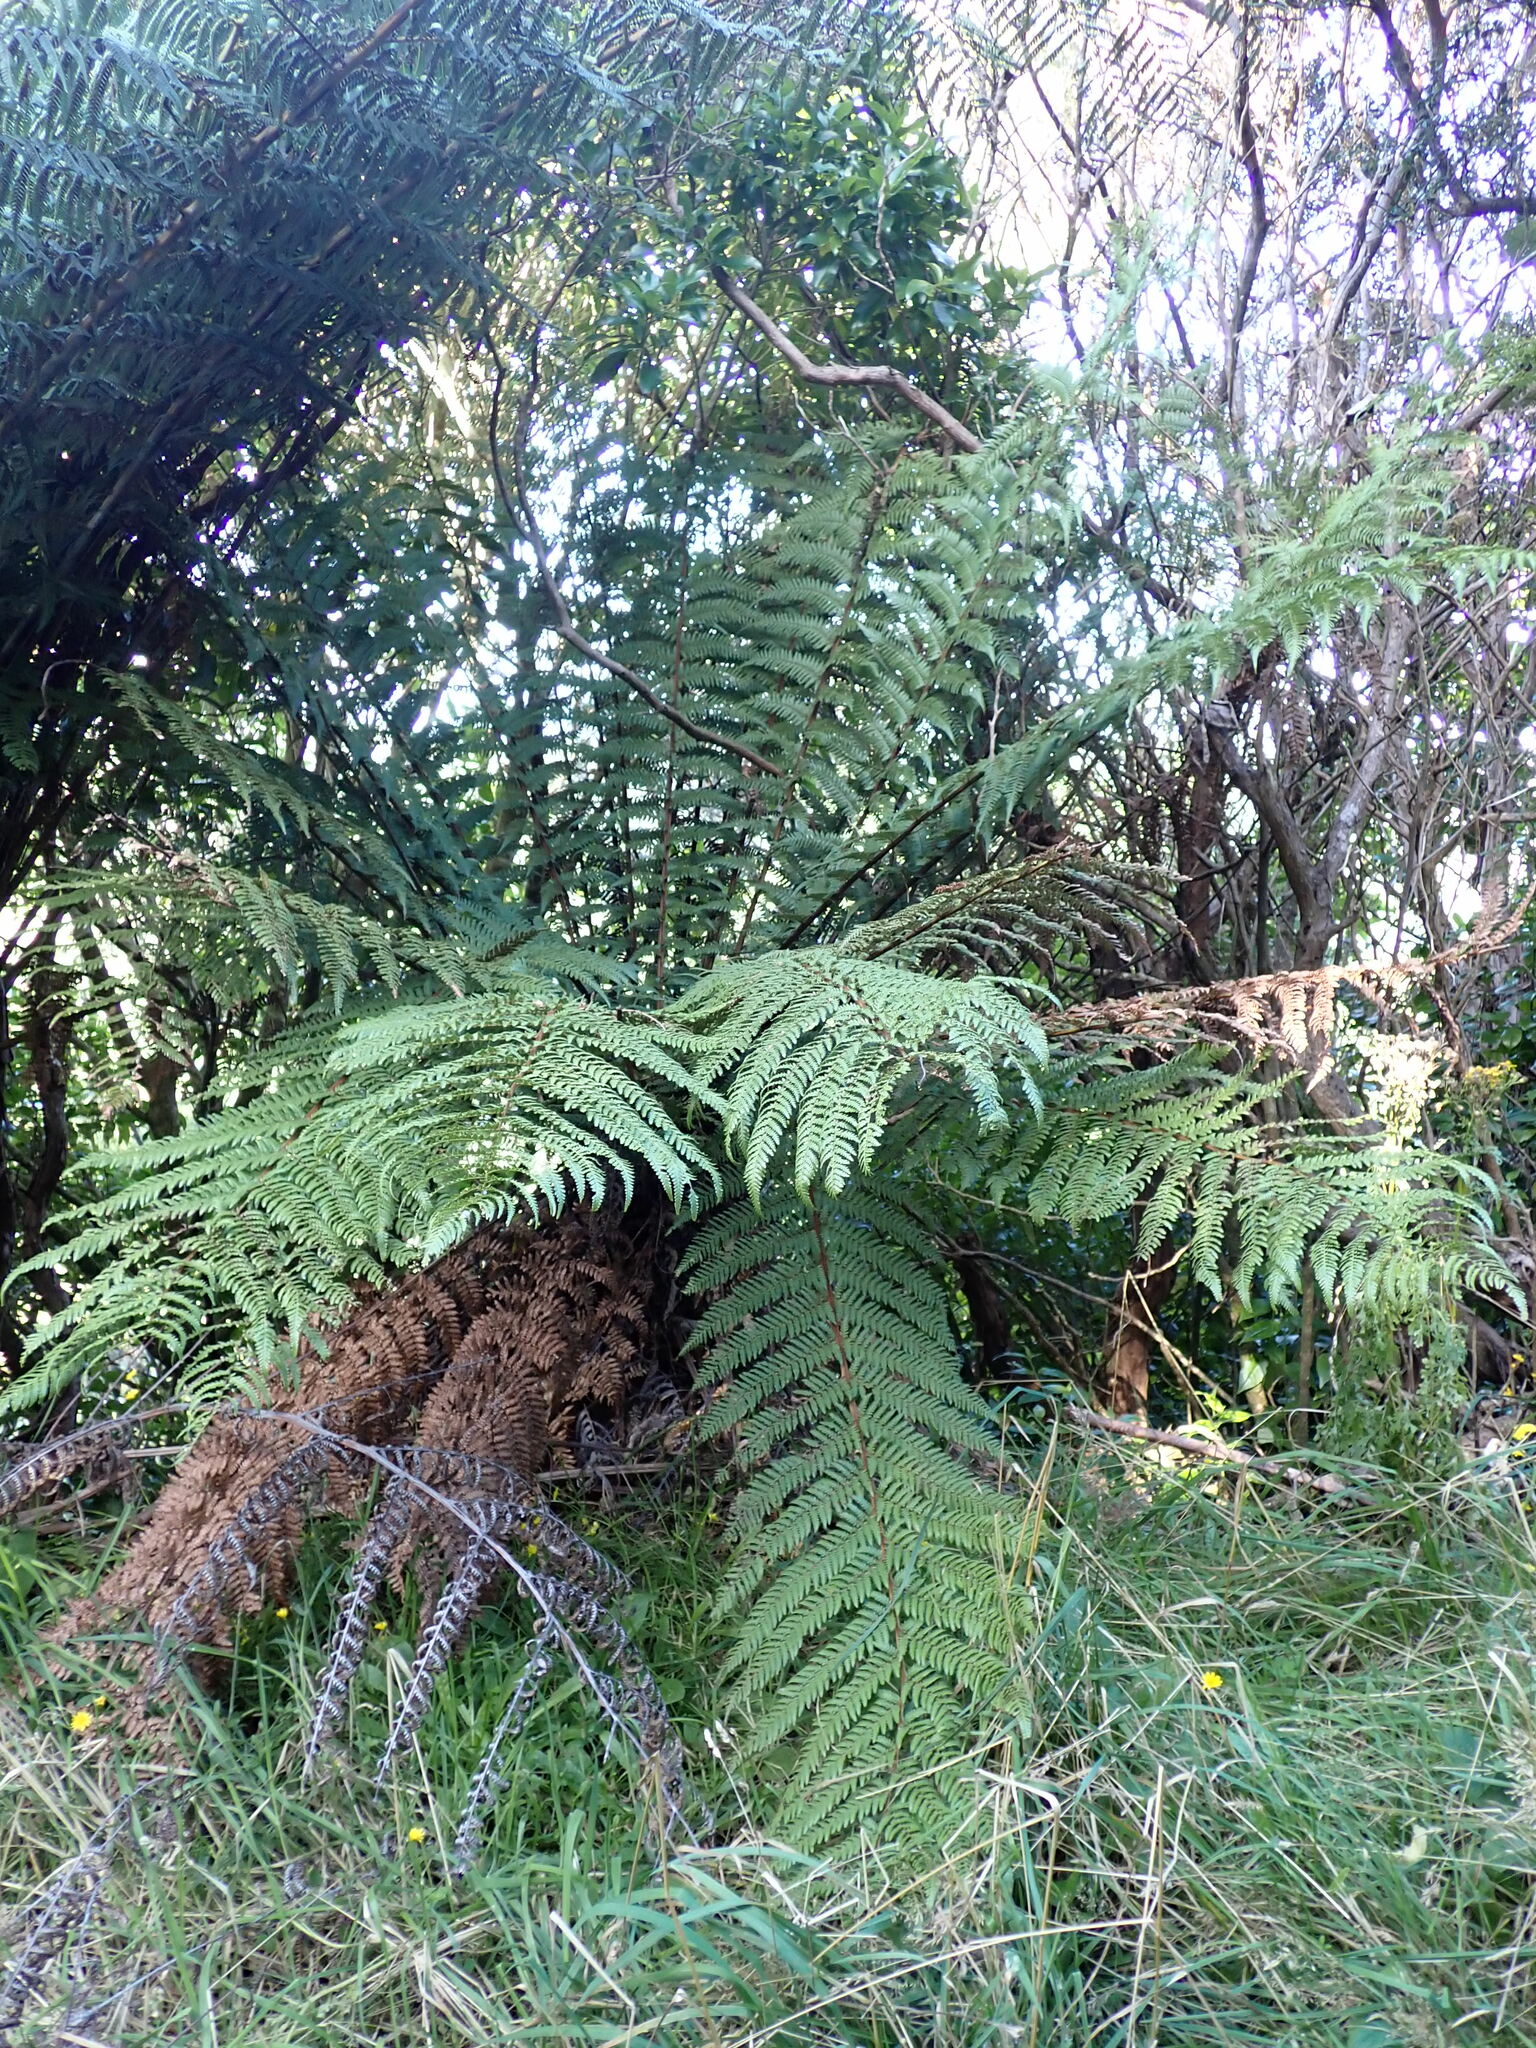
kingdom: Plantae
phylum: Tracheophyta
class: Polypodiopsida
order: Cyatheales
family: Dicksoniaceae
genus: Dicksonia
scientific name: Dicksonia fibrosa
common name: Golden tree fern
